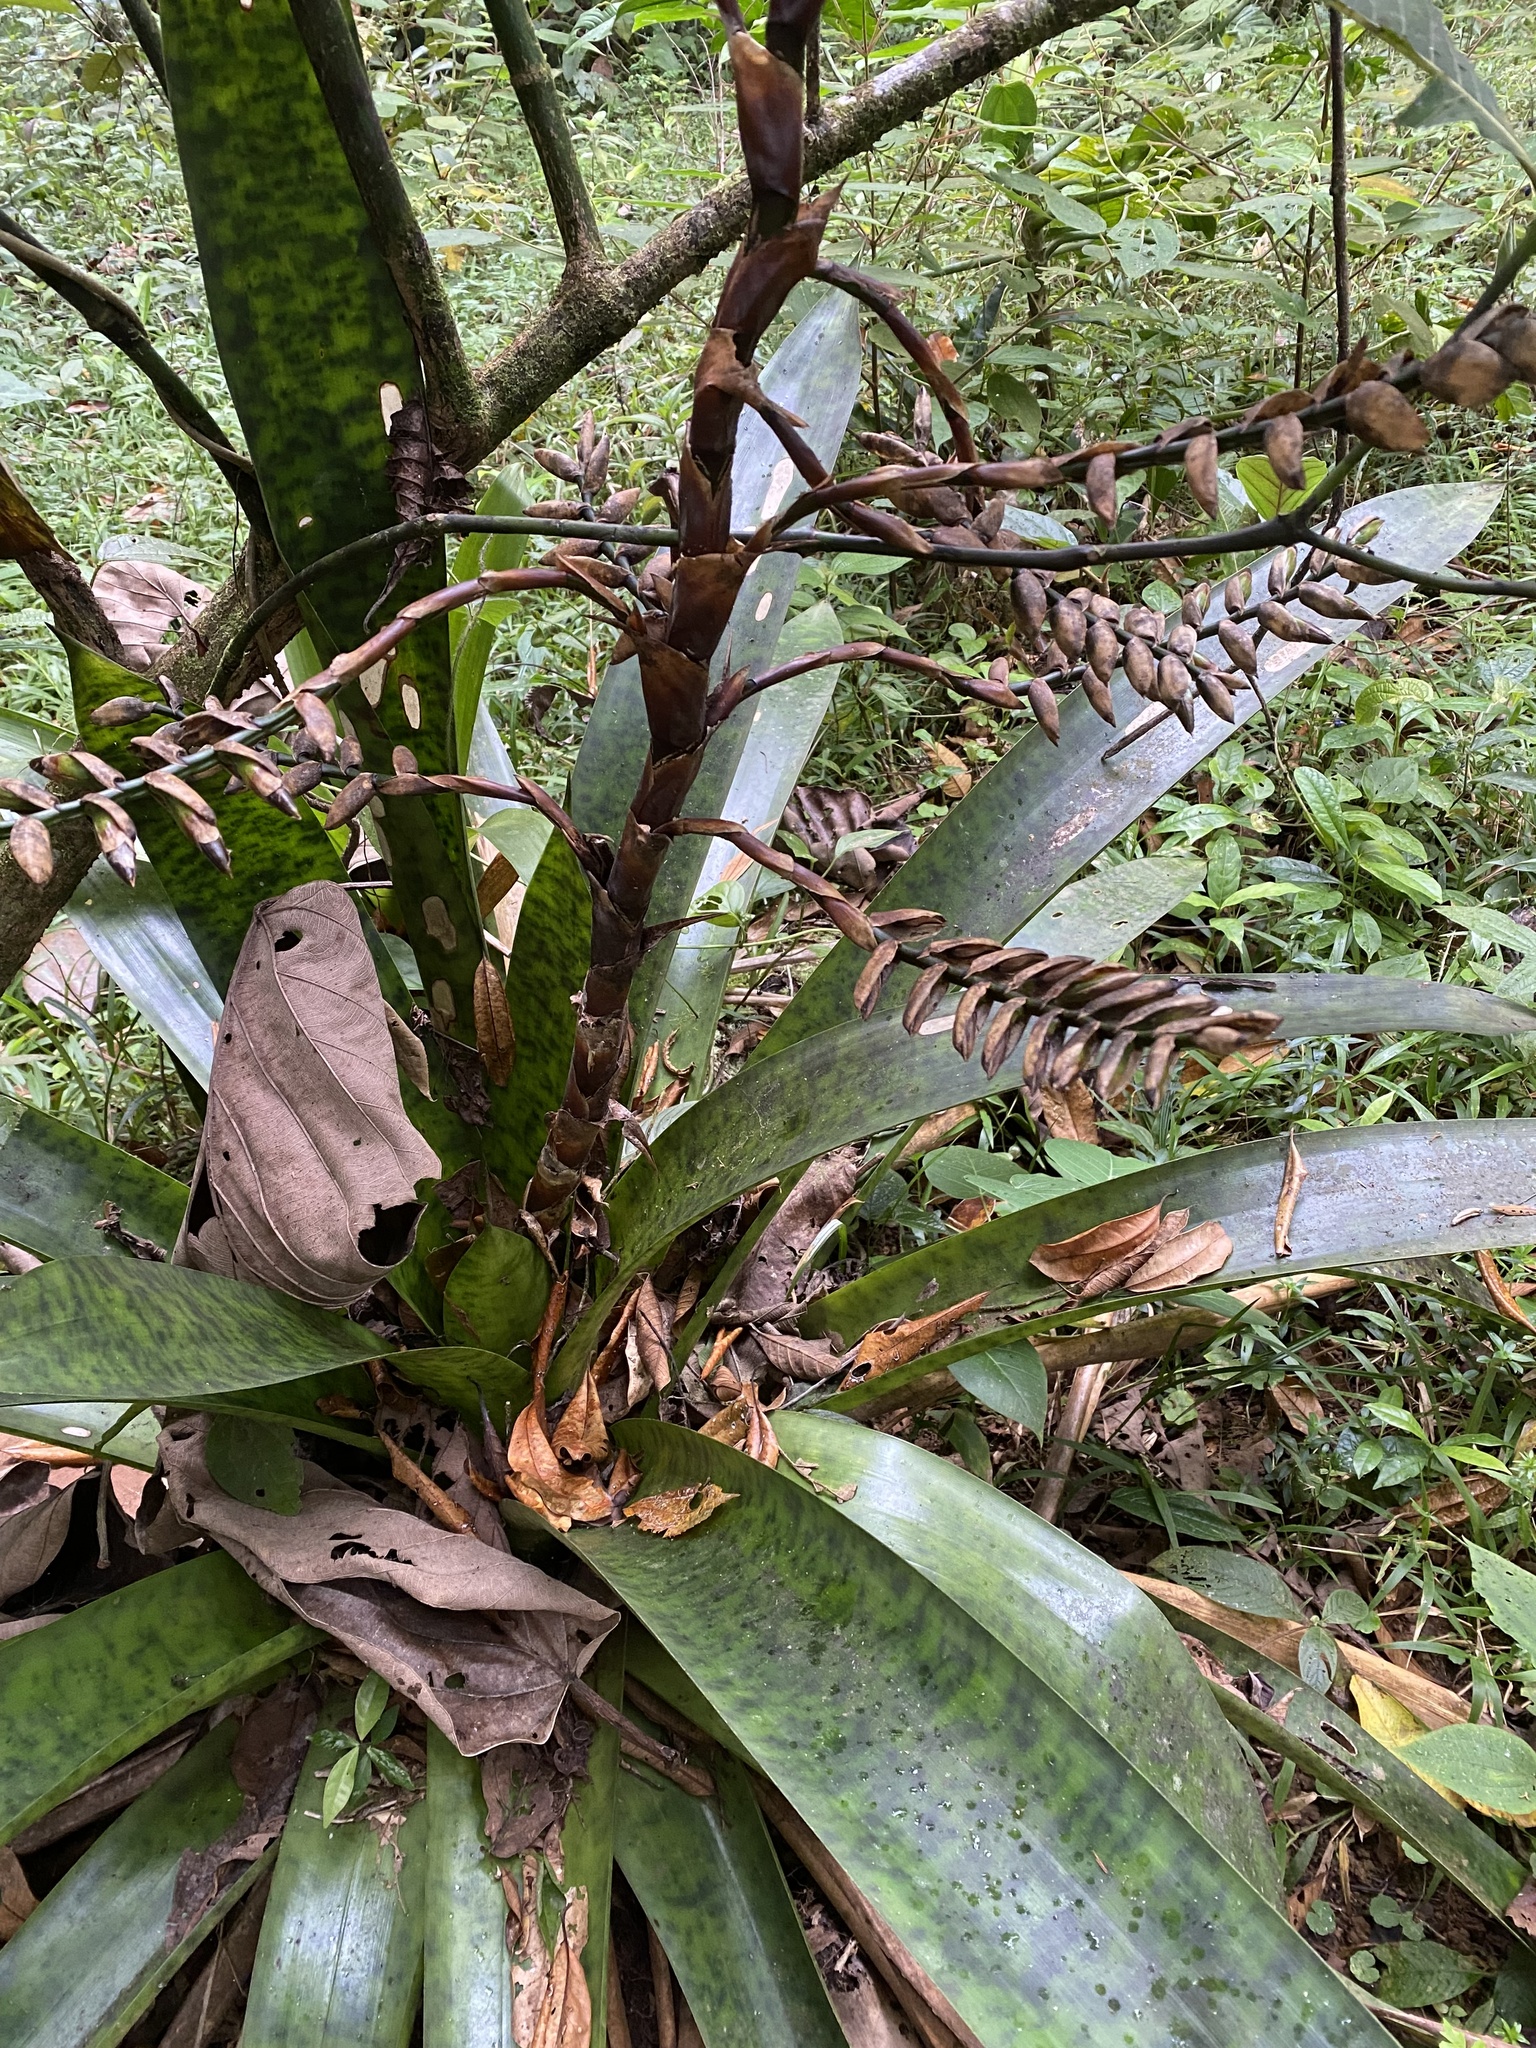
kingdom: Plantae
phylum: Tracheophyta
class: Liliopsida
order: Poales
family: Bromeliaceae
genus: Werauhia
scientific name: Werauhia kupperiana
